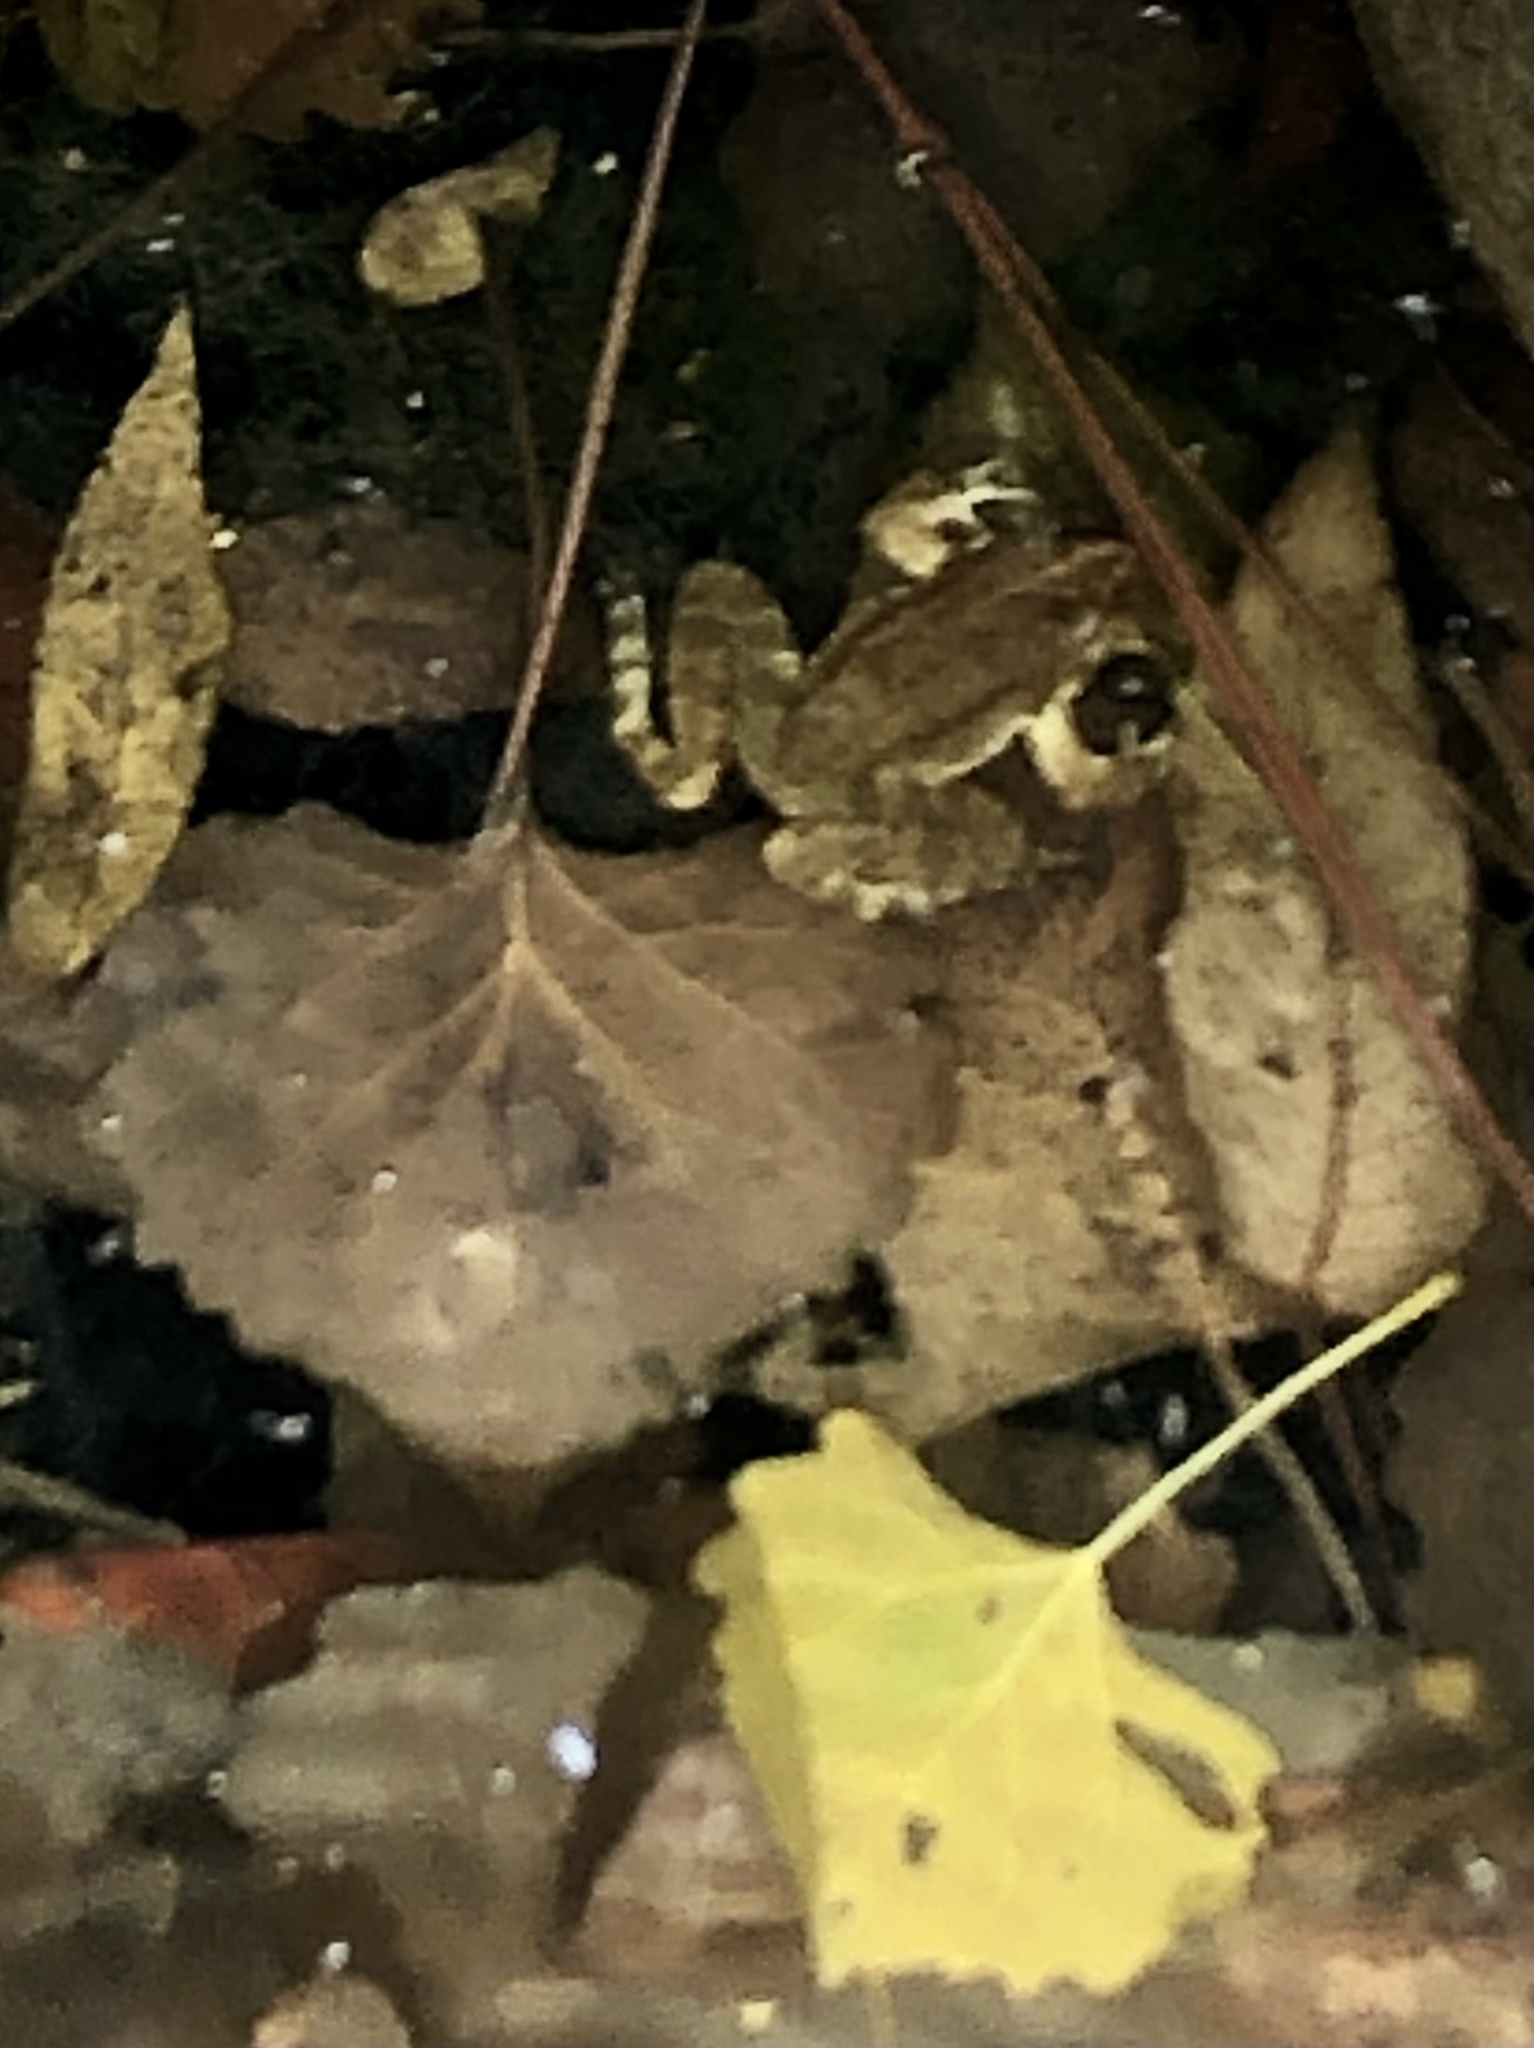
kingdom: Animalia
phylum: Chordata
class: Amphibia
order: Anura
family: Ranidae
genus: Rana
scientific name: Rana boylii
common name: Foothill yellow-legged frog
